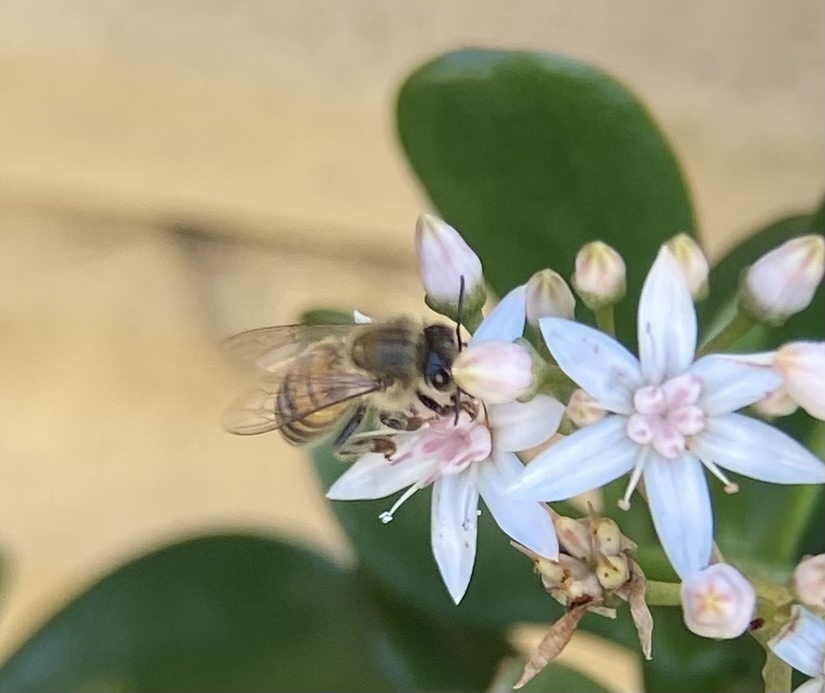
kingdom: Animalia
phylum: Arthropoda
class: Insecta
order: Hymenoptera
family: Apidae
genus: Apis
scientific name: Apis mellifera
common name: Honey bee
